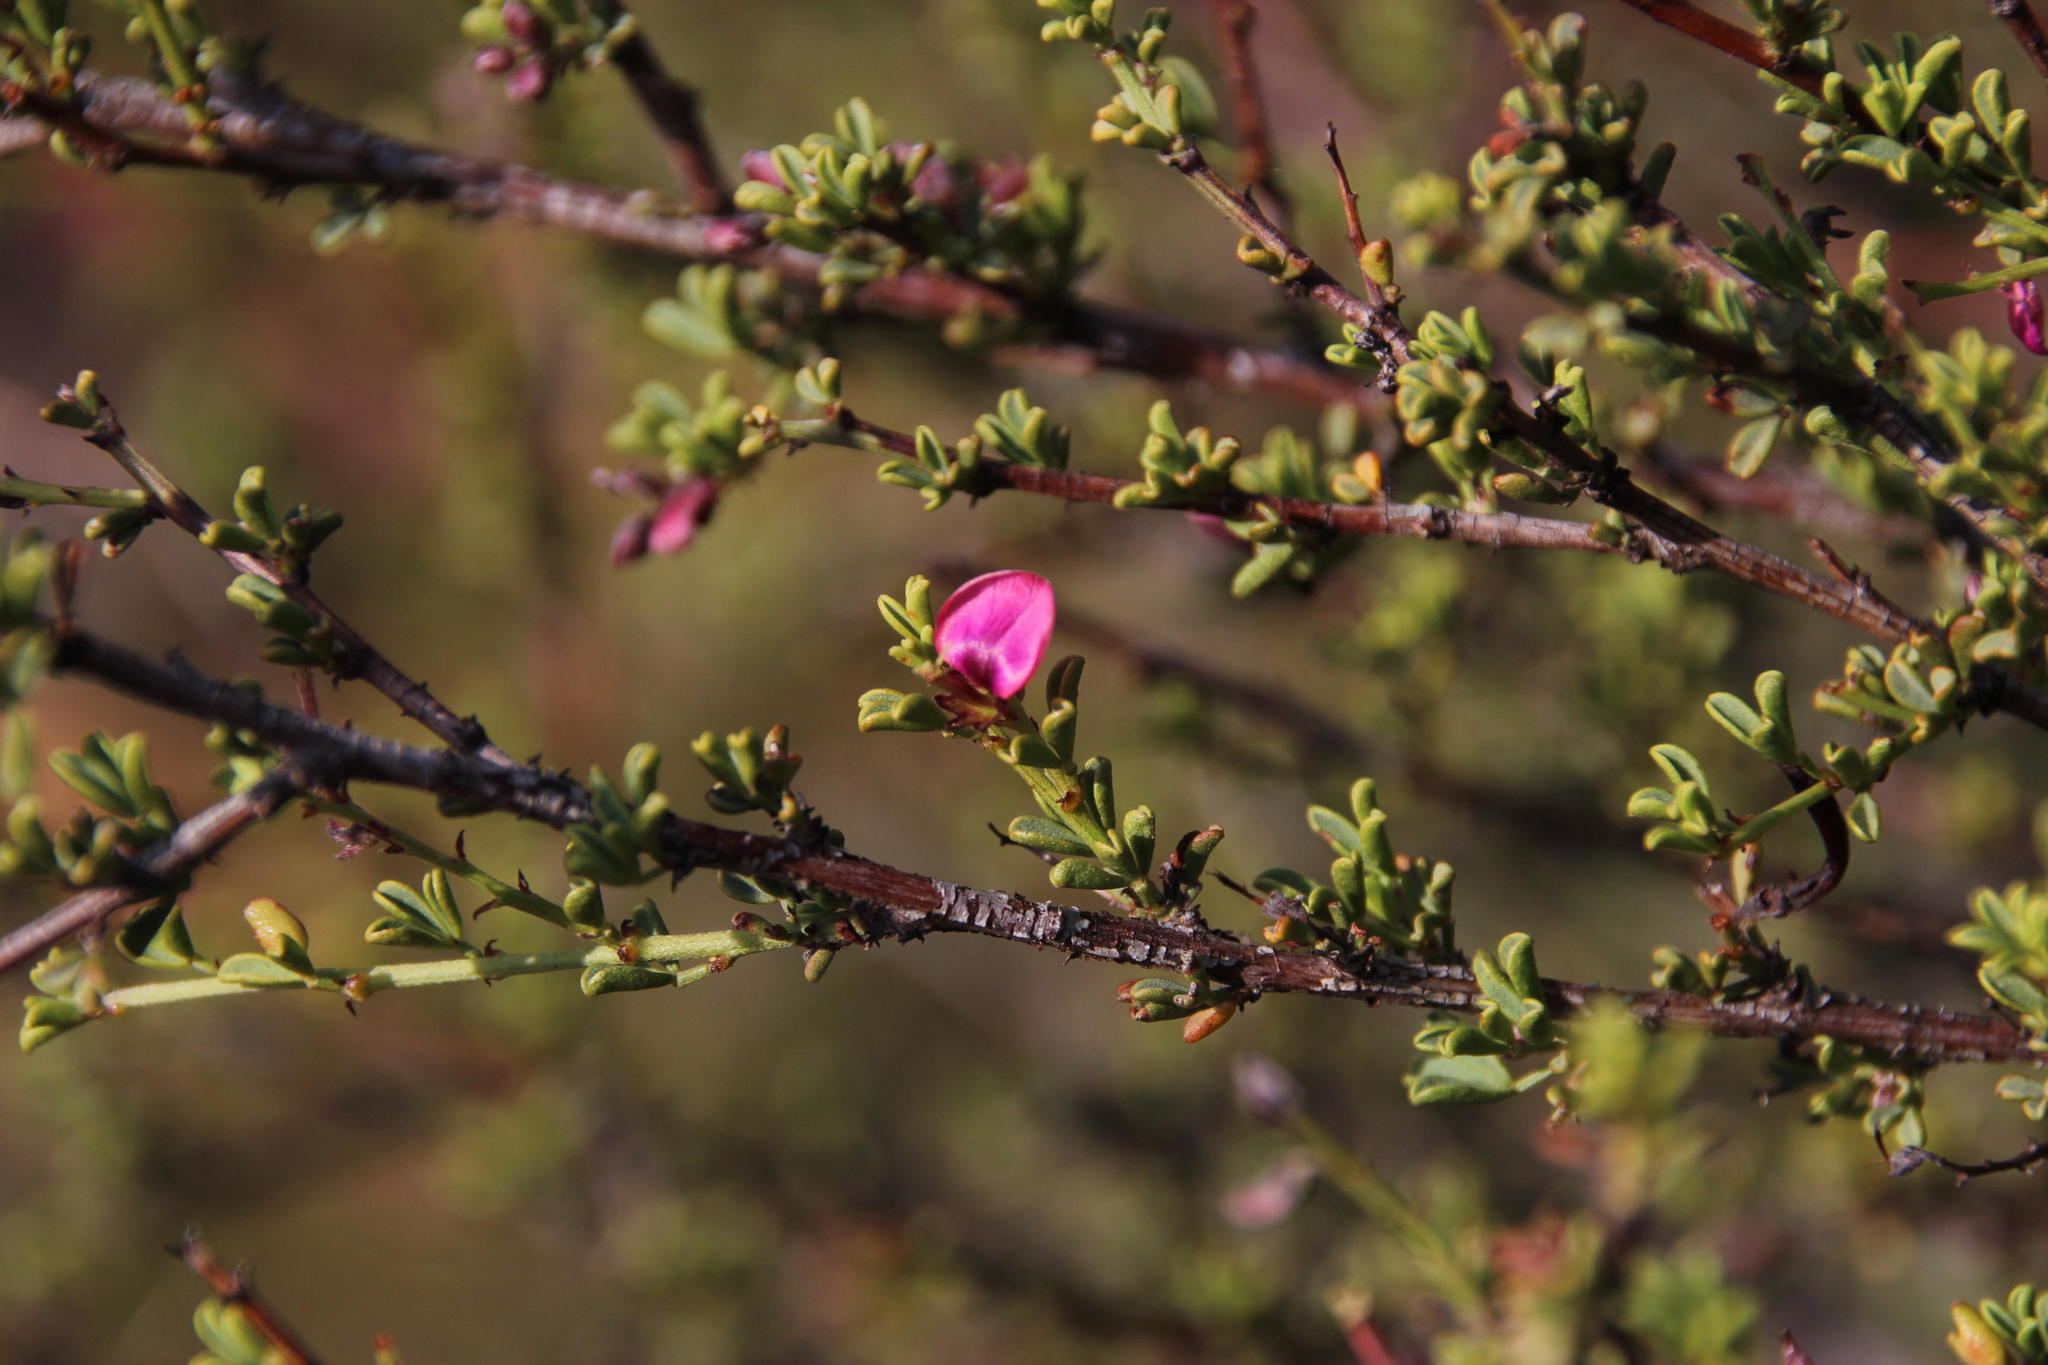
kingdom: Plantae
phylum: Tracheophyta
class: Magnoliopsida
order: Fabales
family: Fabaceae
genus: Indigofera
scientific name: Indigofera spinescens
